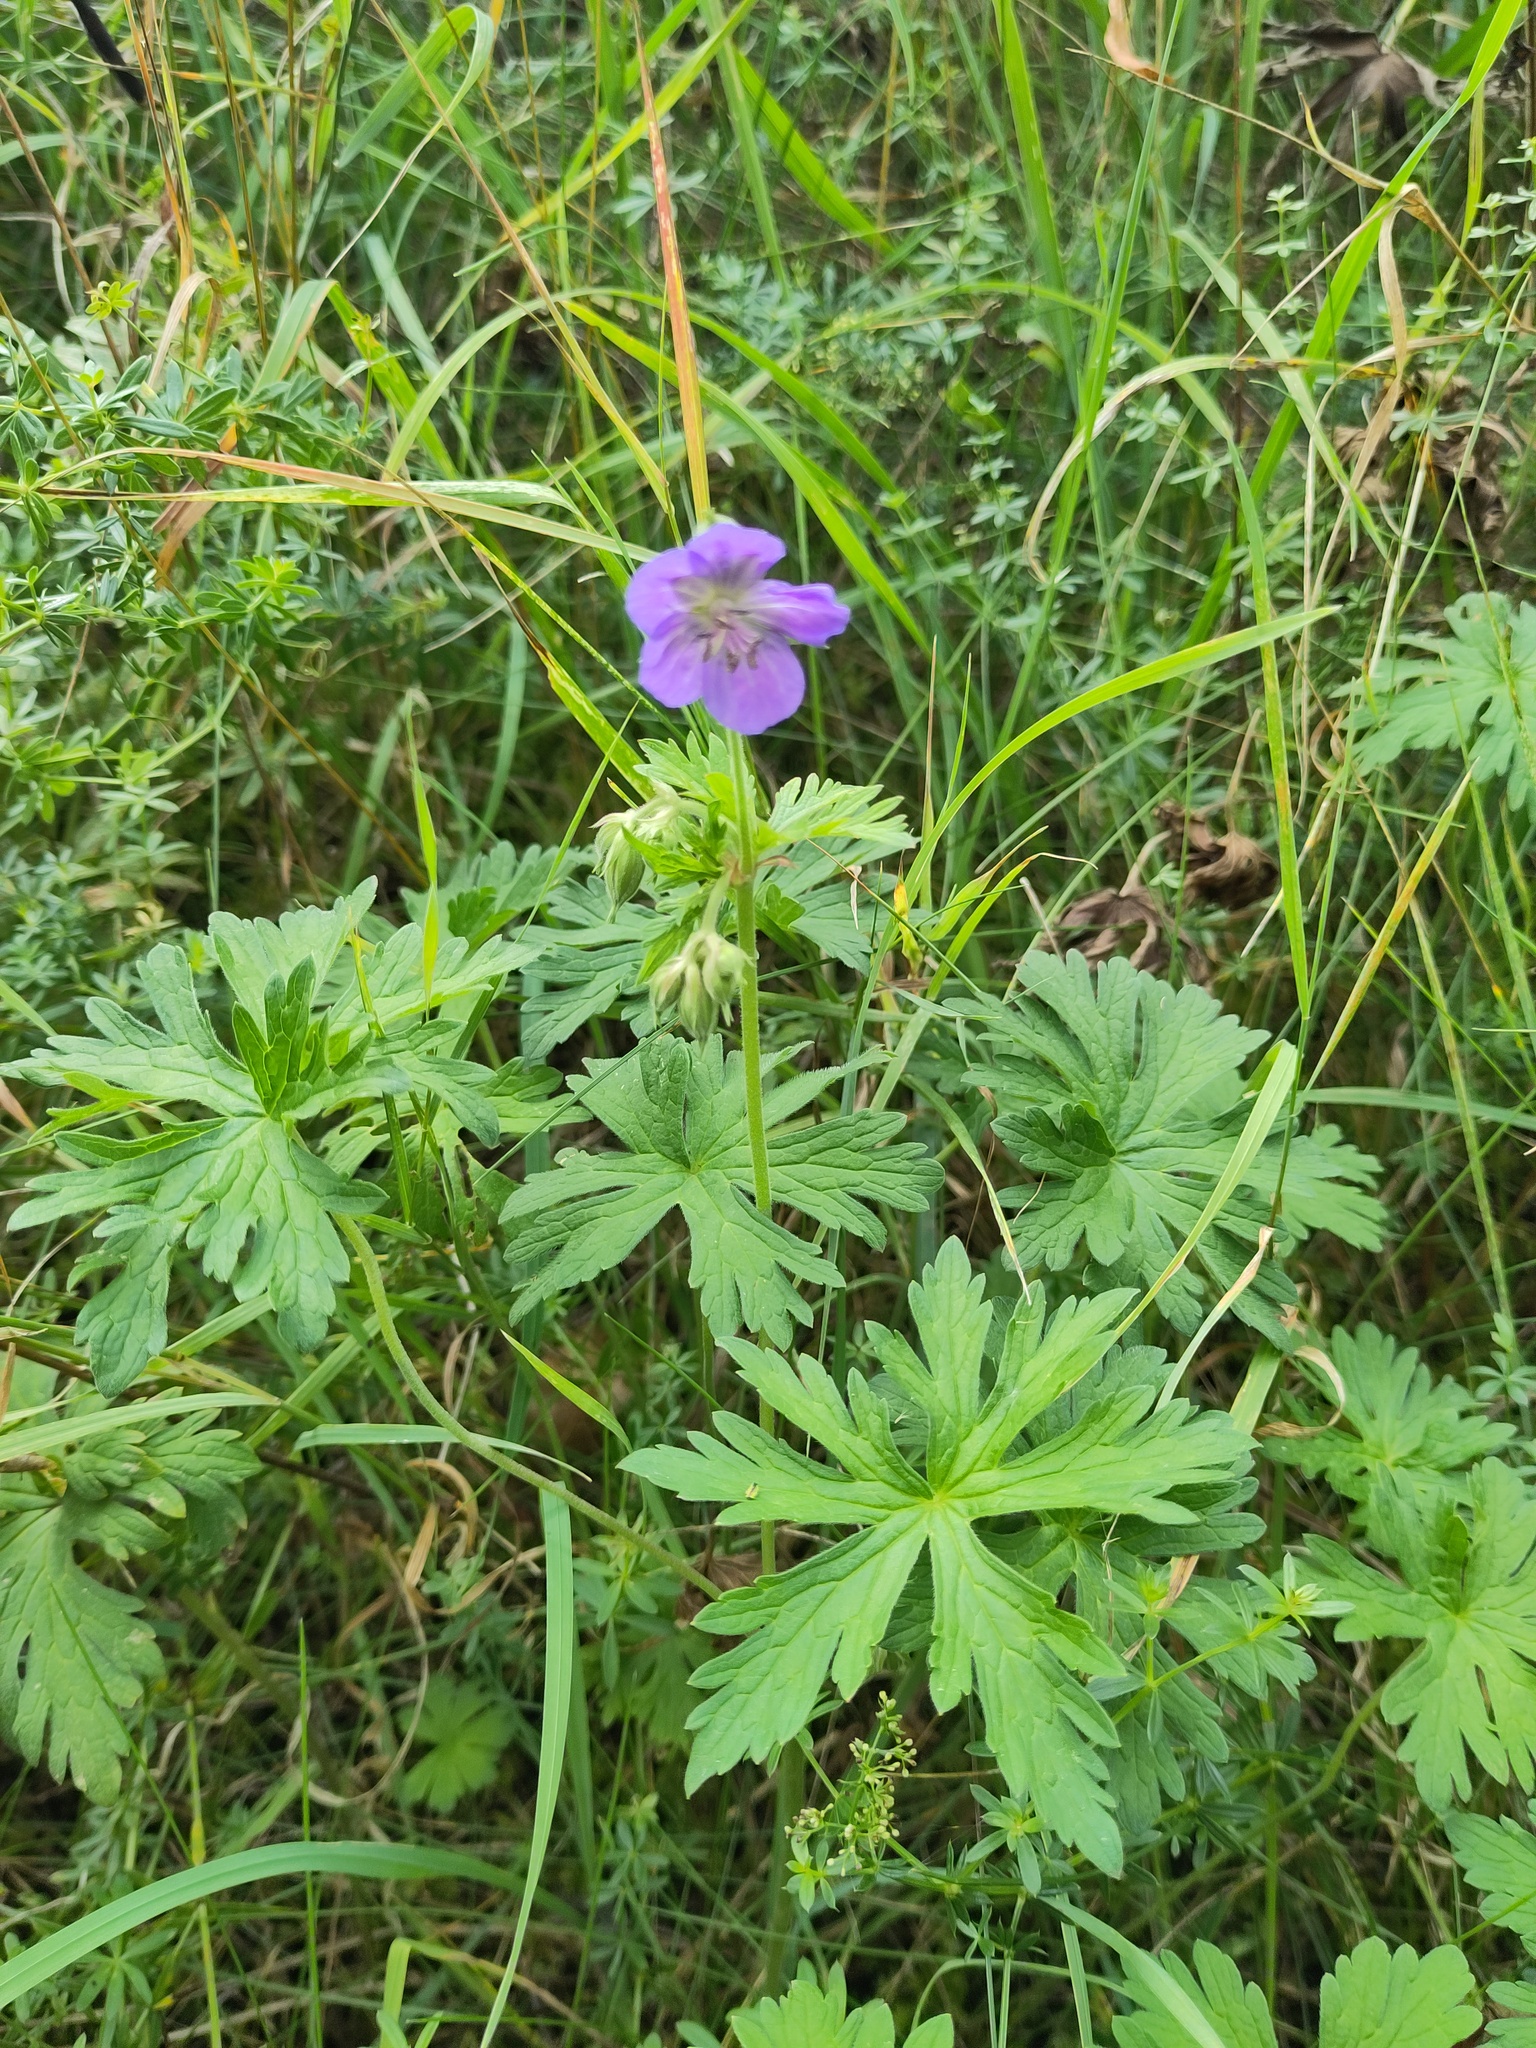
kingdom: Plantae
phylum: Tracheophyta
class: Magnoliopsida
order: Geraniales
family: Geraniaceae
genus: Geranium
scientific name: Geranium pratense
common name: Meadow crane's-bill
